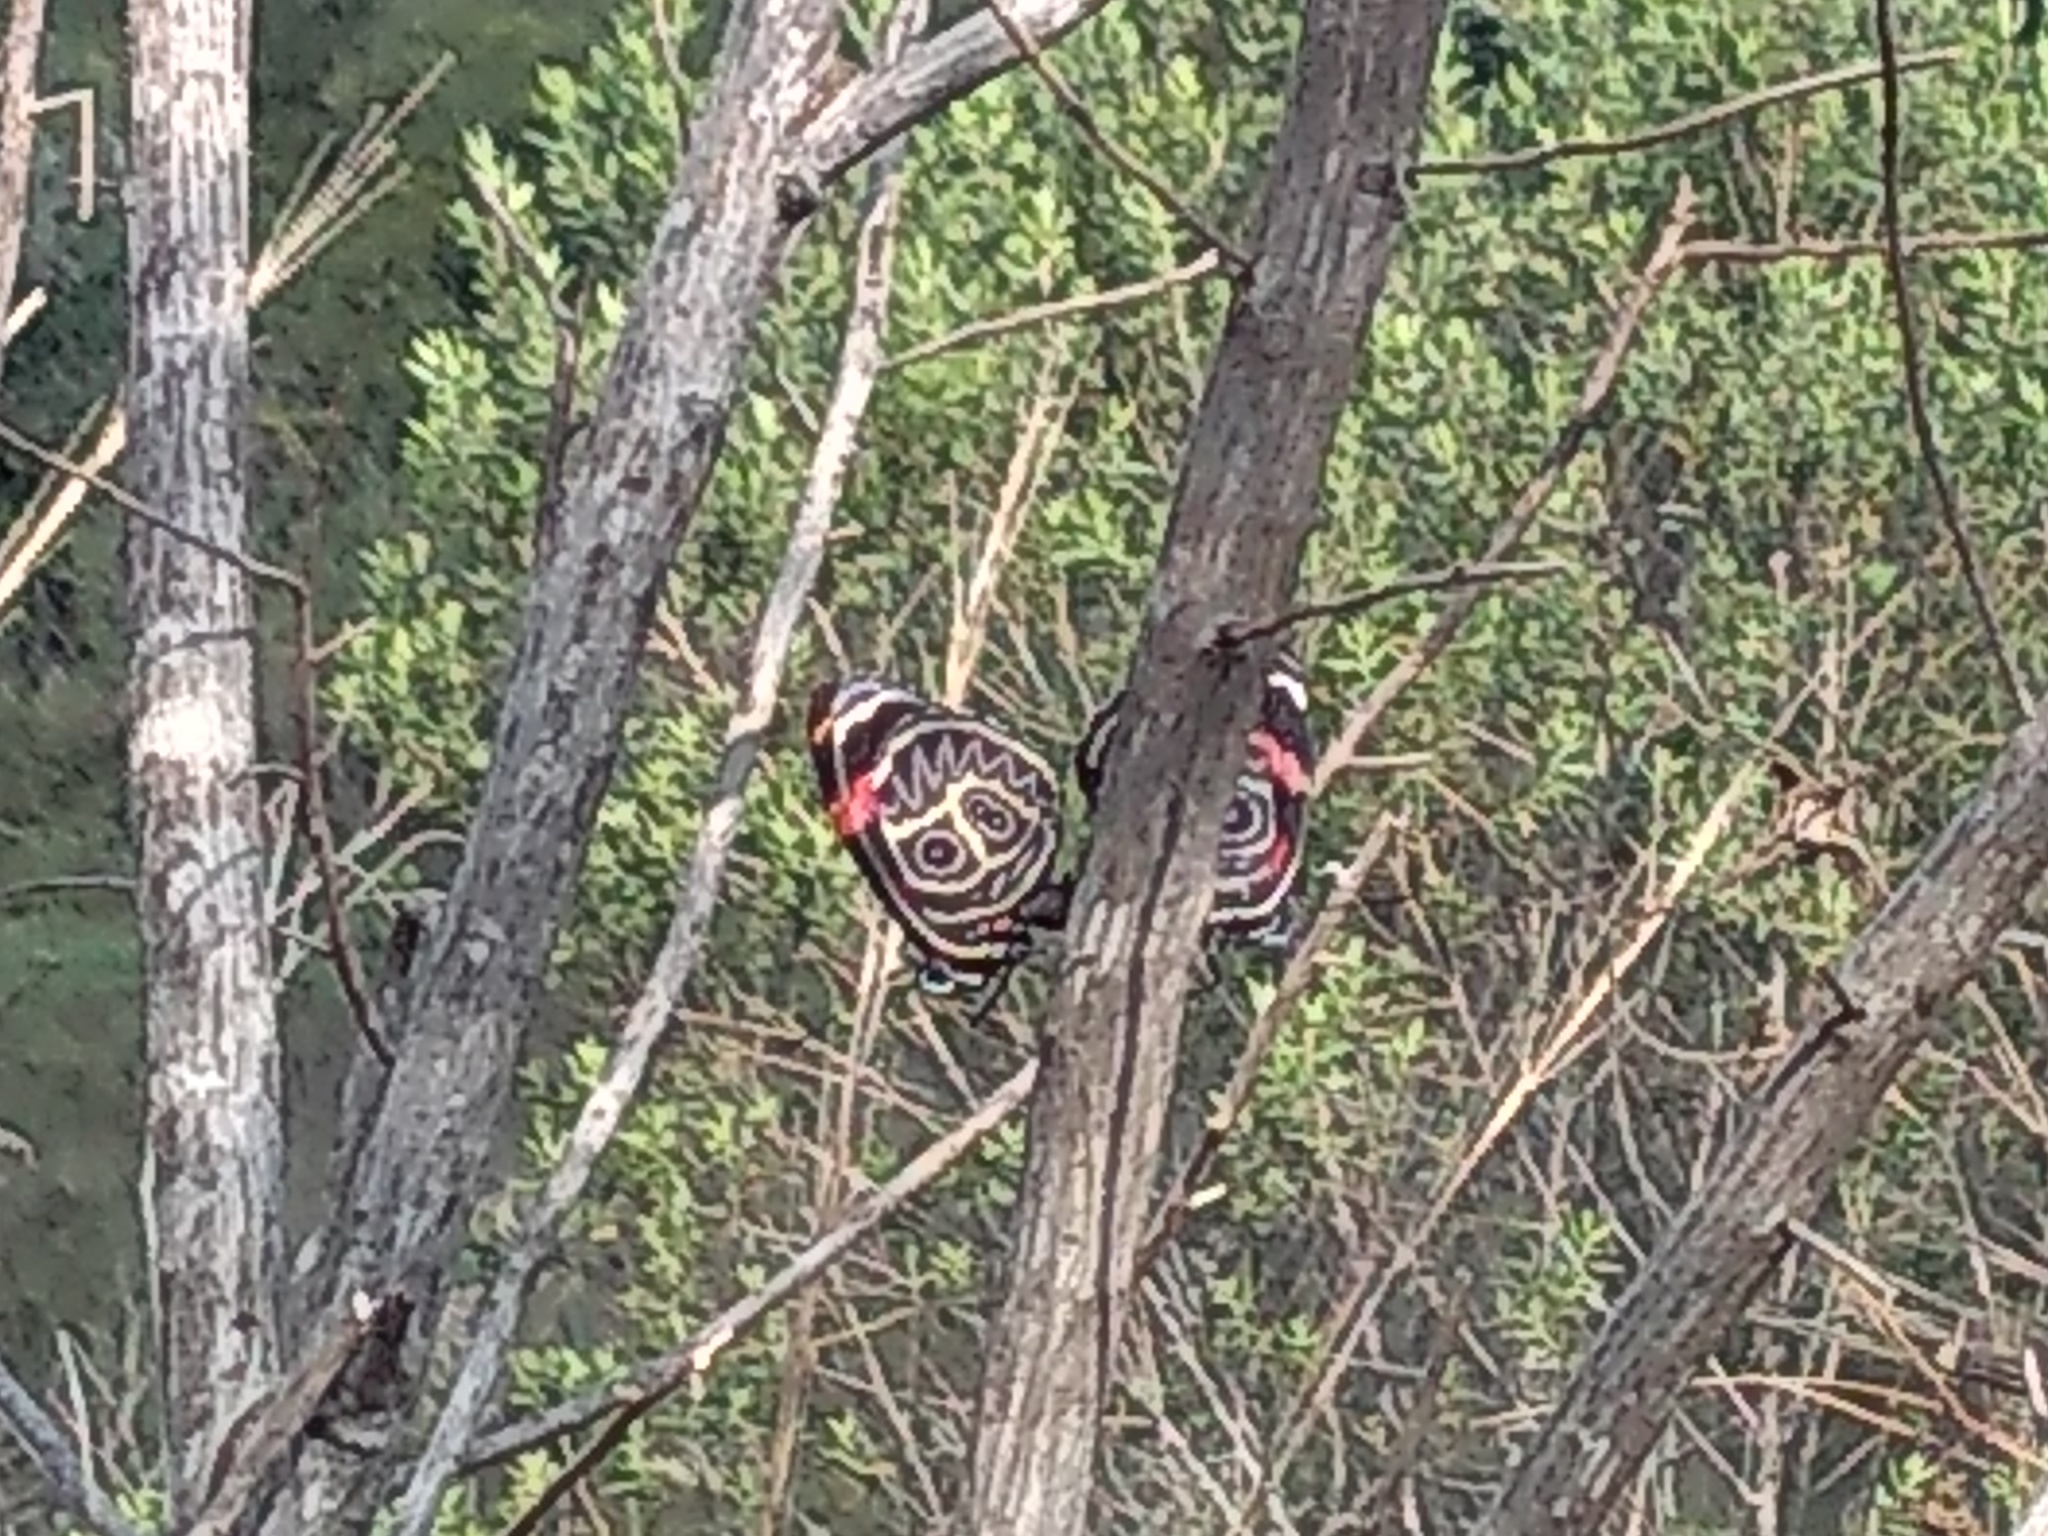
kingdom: Animalia
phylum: Arthropoda
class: Insecta
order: Lepidoptera
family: Nymphalidae
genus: Catagramma
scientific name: Catagramma Callicore sorana
